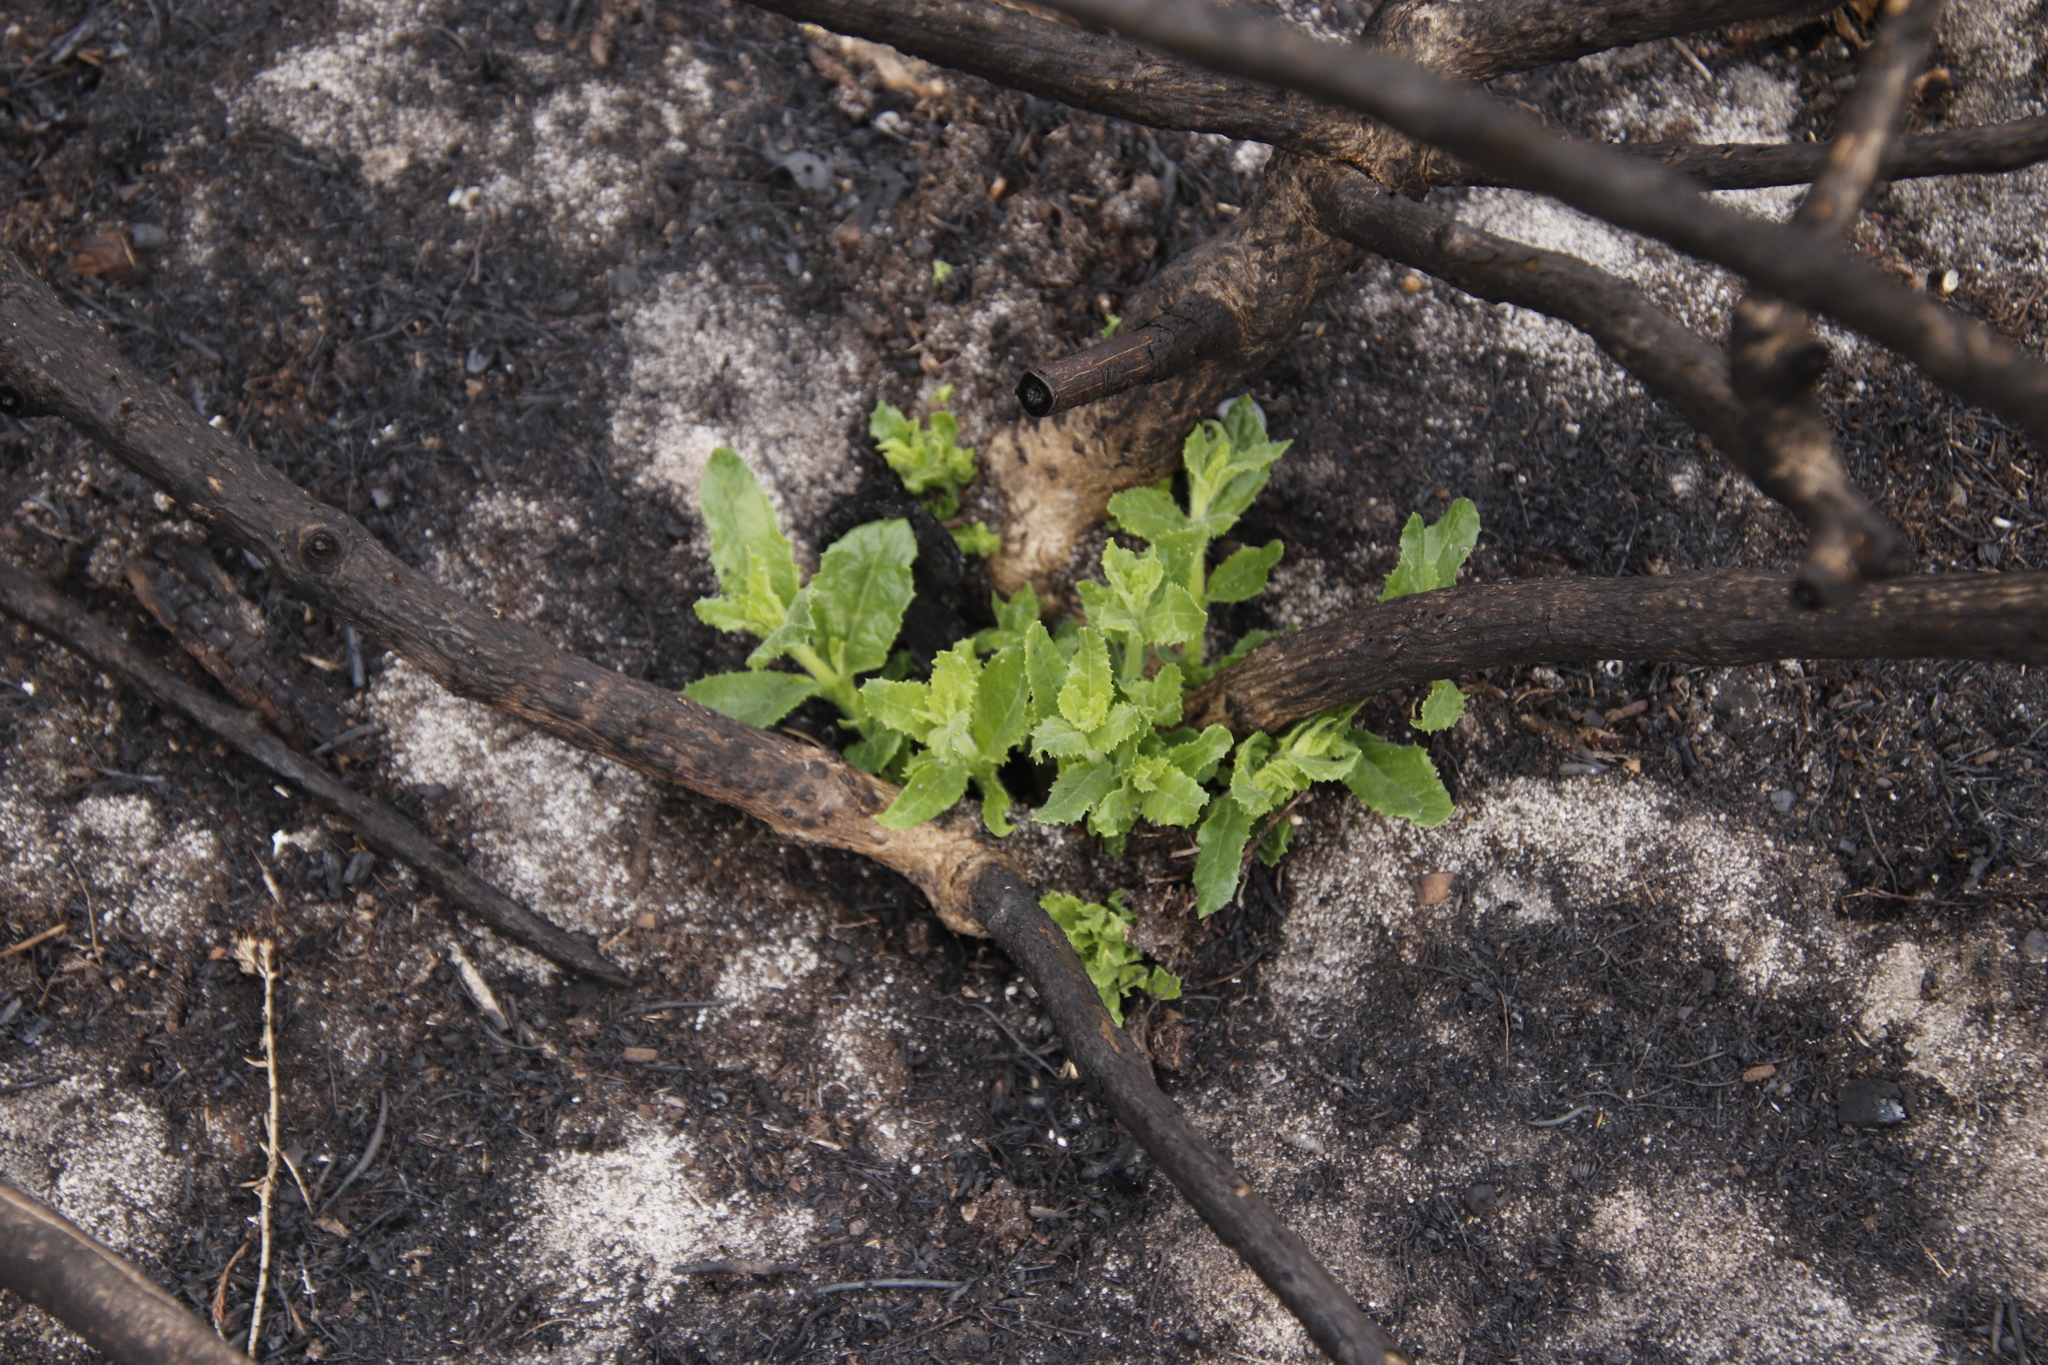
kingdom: Plantae
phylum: Tracheophyta
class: Magnoliopsida
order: Lamiales
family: Scrophulariaceae
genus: Oftia
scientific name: Oftia africana
